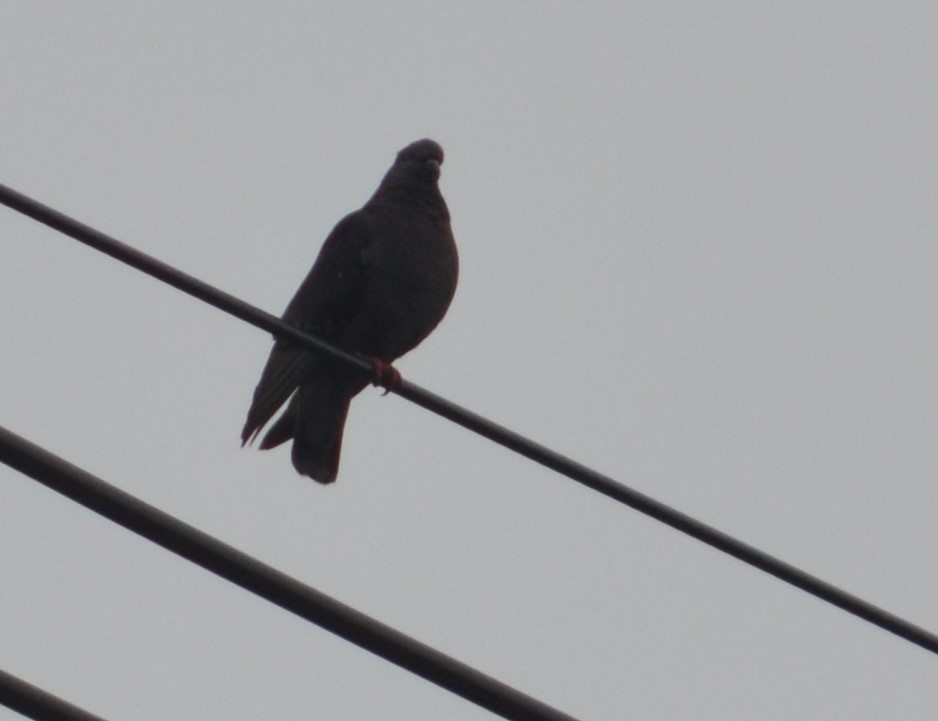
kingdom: Animalia
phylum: Chordata
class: Aves
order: Columbiformes
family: Columbidae
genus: Columba
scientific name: Columba livia
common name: Rock pigeon
